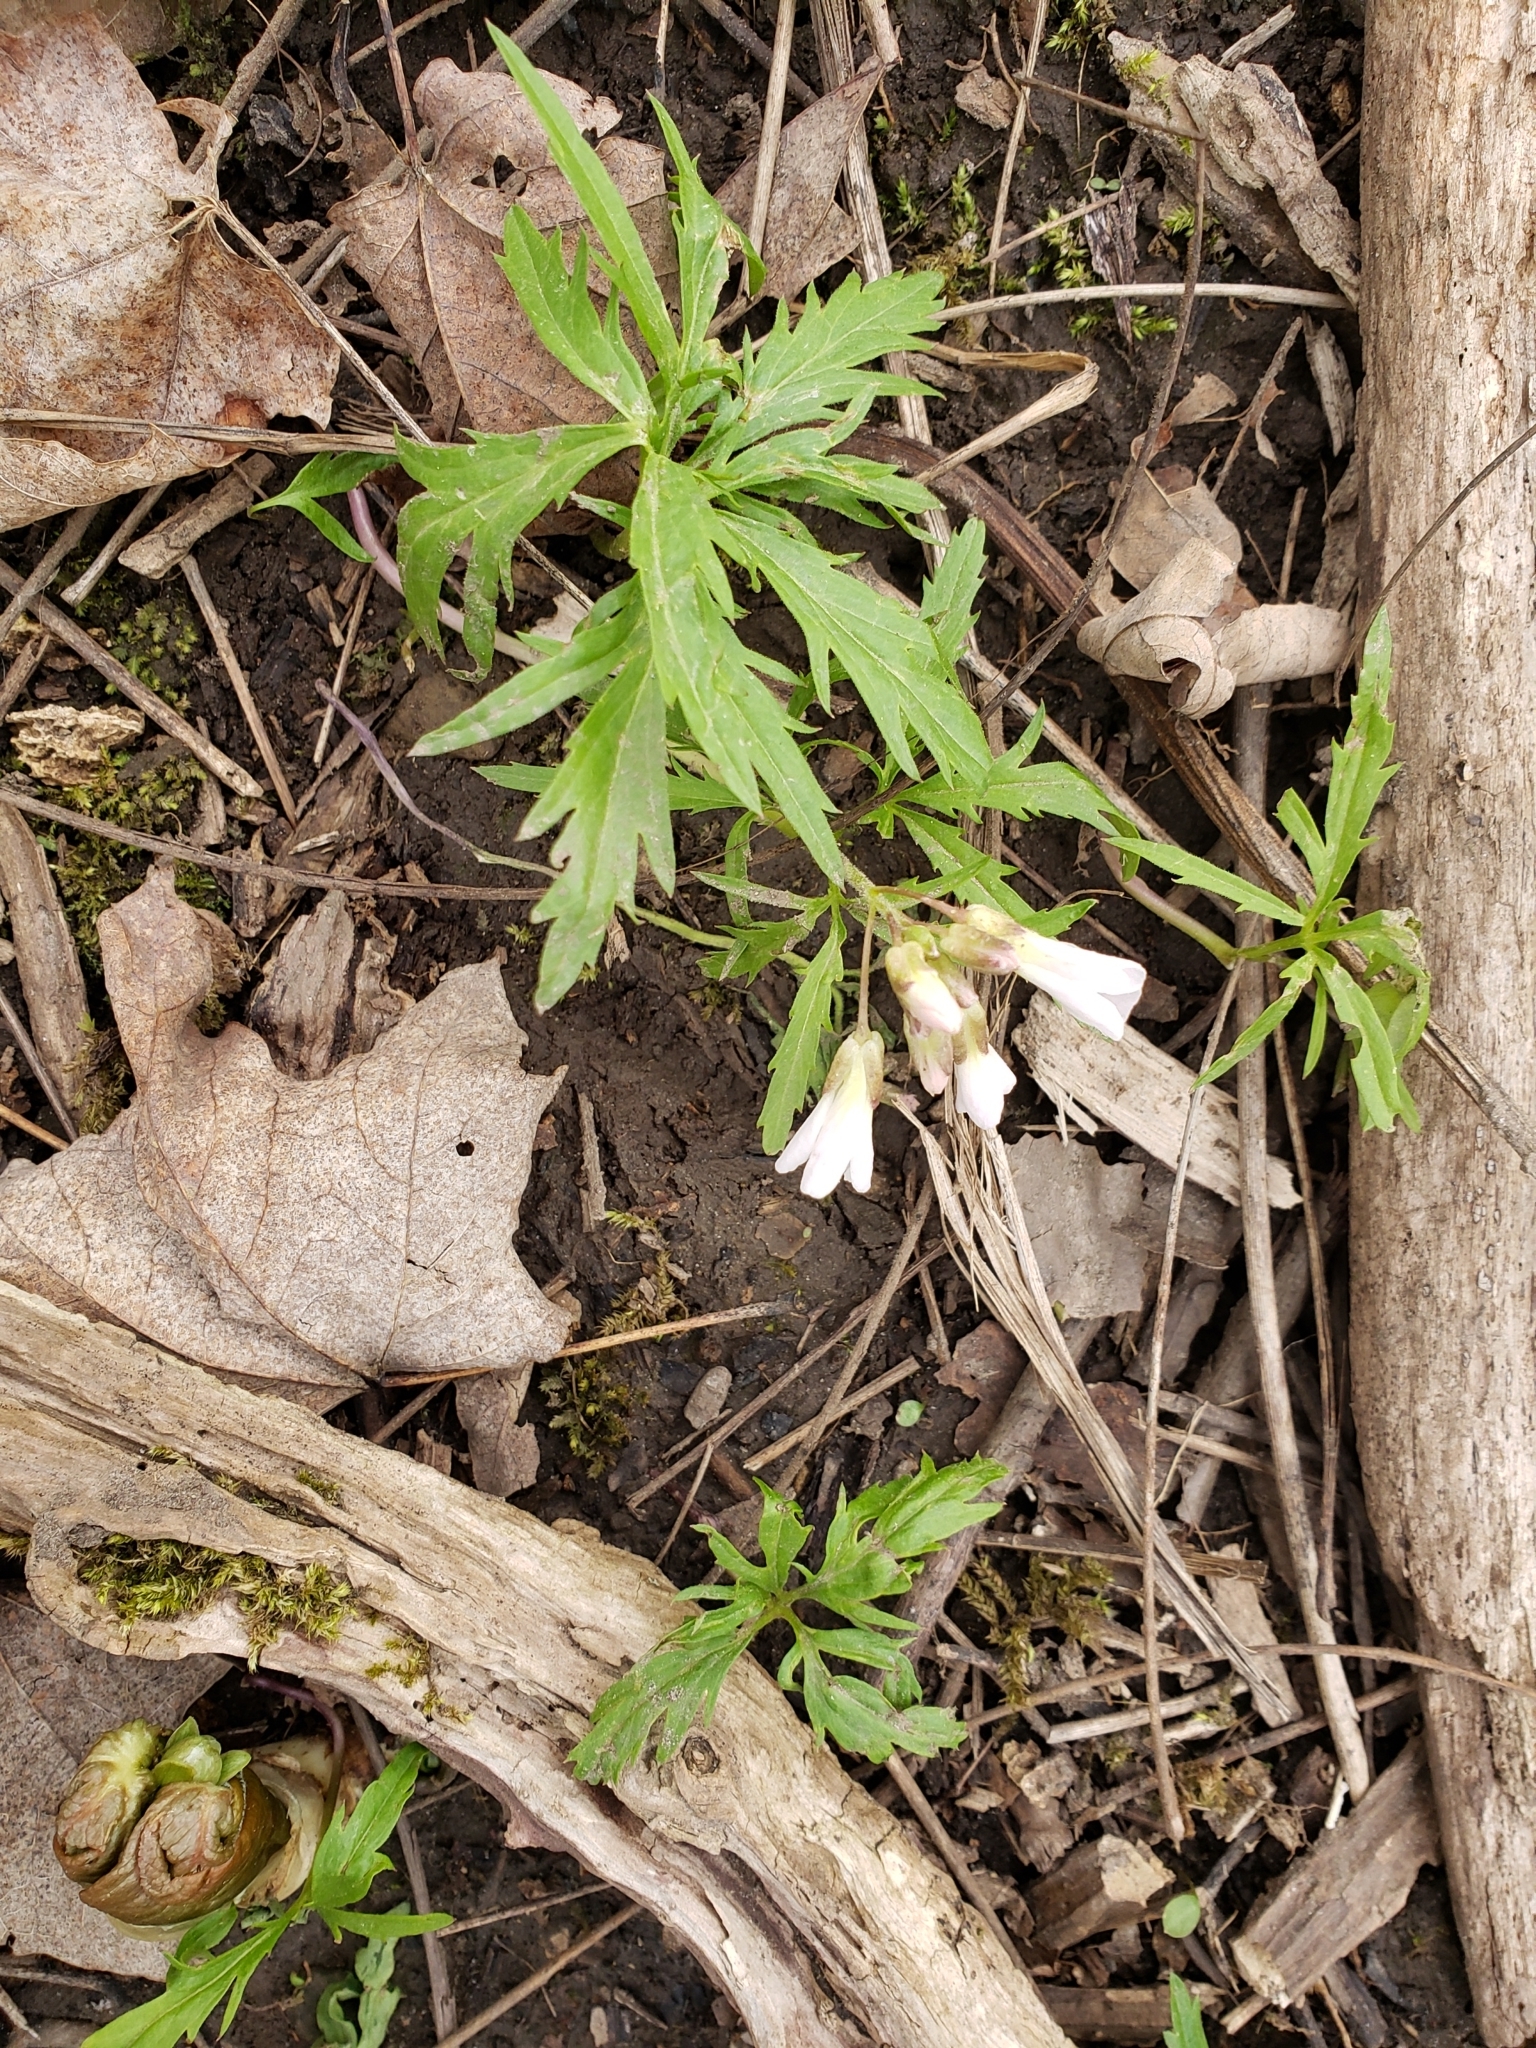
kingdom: Plantae
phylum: Tracheophyta
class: Magnoliopsida
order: Brassicales
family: Brassicaceae
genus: Cardamine
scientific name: Cardamine concatenata
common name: Cut-leaf toothcup
